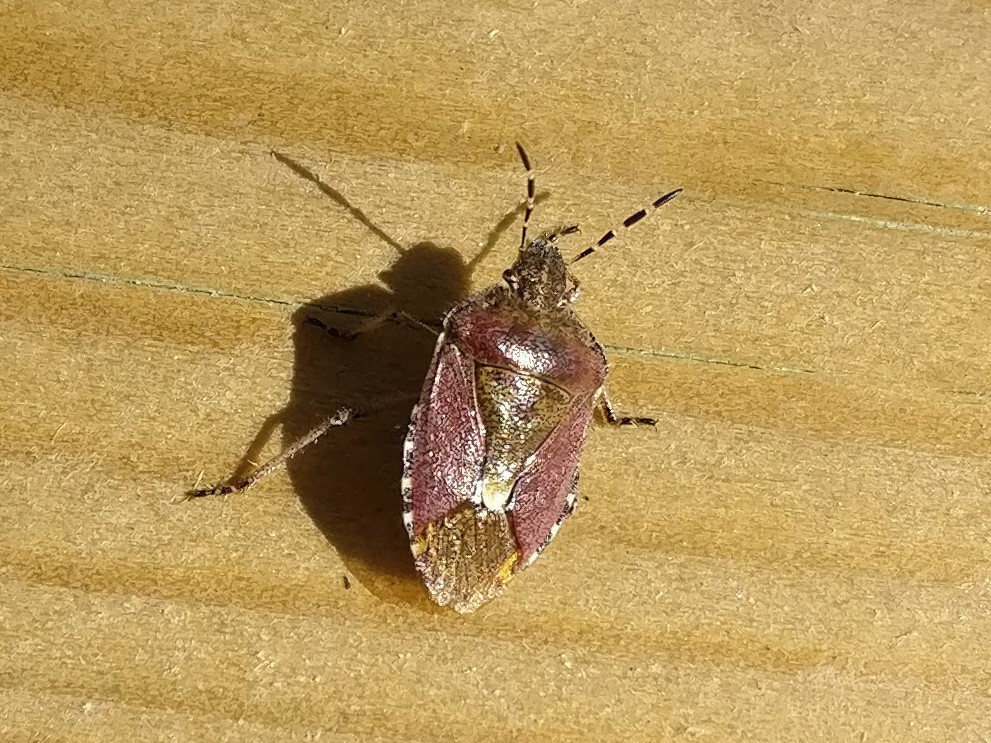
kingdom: Animalia
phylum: Arthropoda
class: Insecta
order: Hemiptera
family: Pentatomidae
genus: Dolycoris
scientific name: Dolycoris baccarum
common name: Sloe bug
